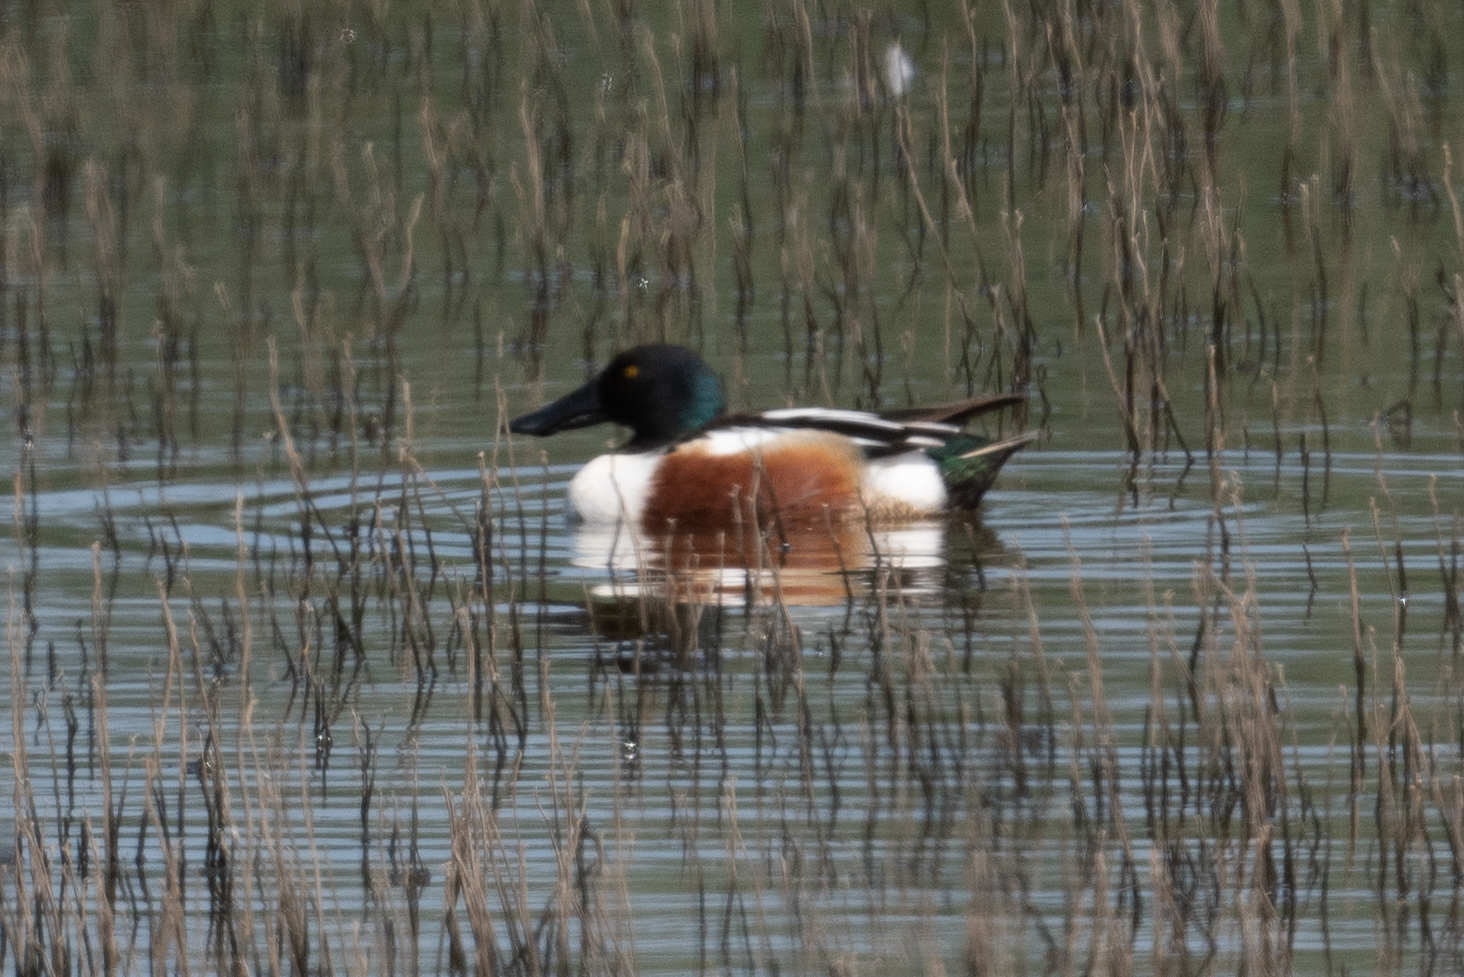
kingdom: Animalia
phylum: Chordata
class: Aves
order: Anseriformes
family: Anatidae
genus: Spatula
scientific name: Spatula clypeata
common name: Northern shoveler
